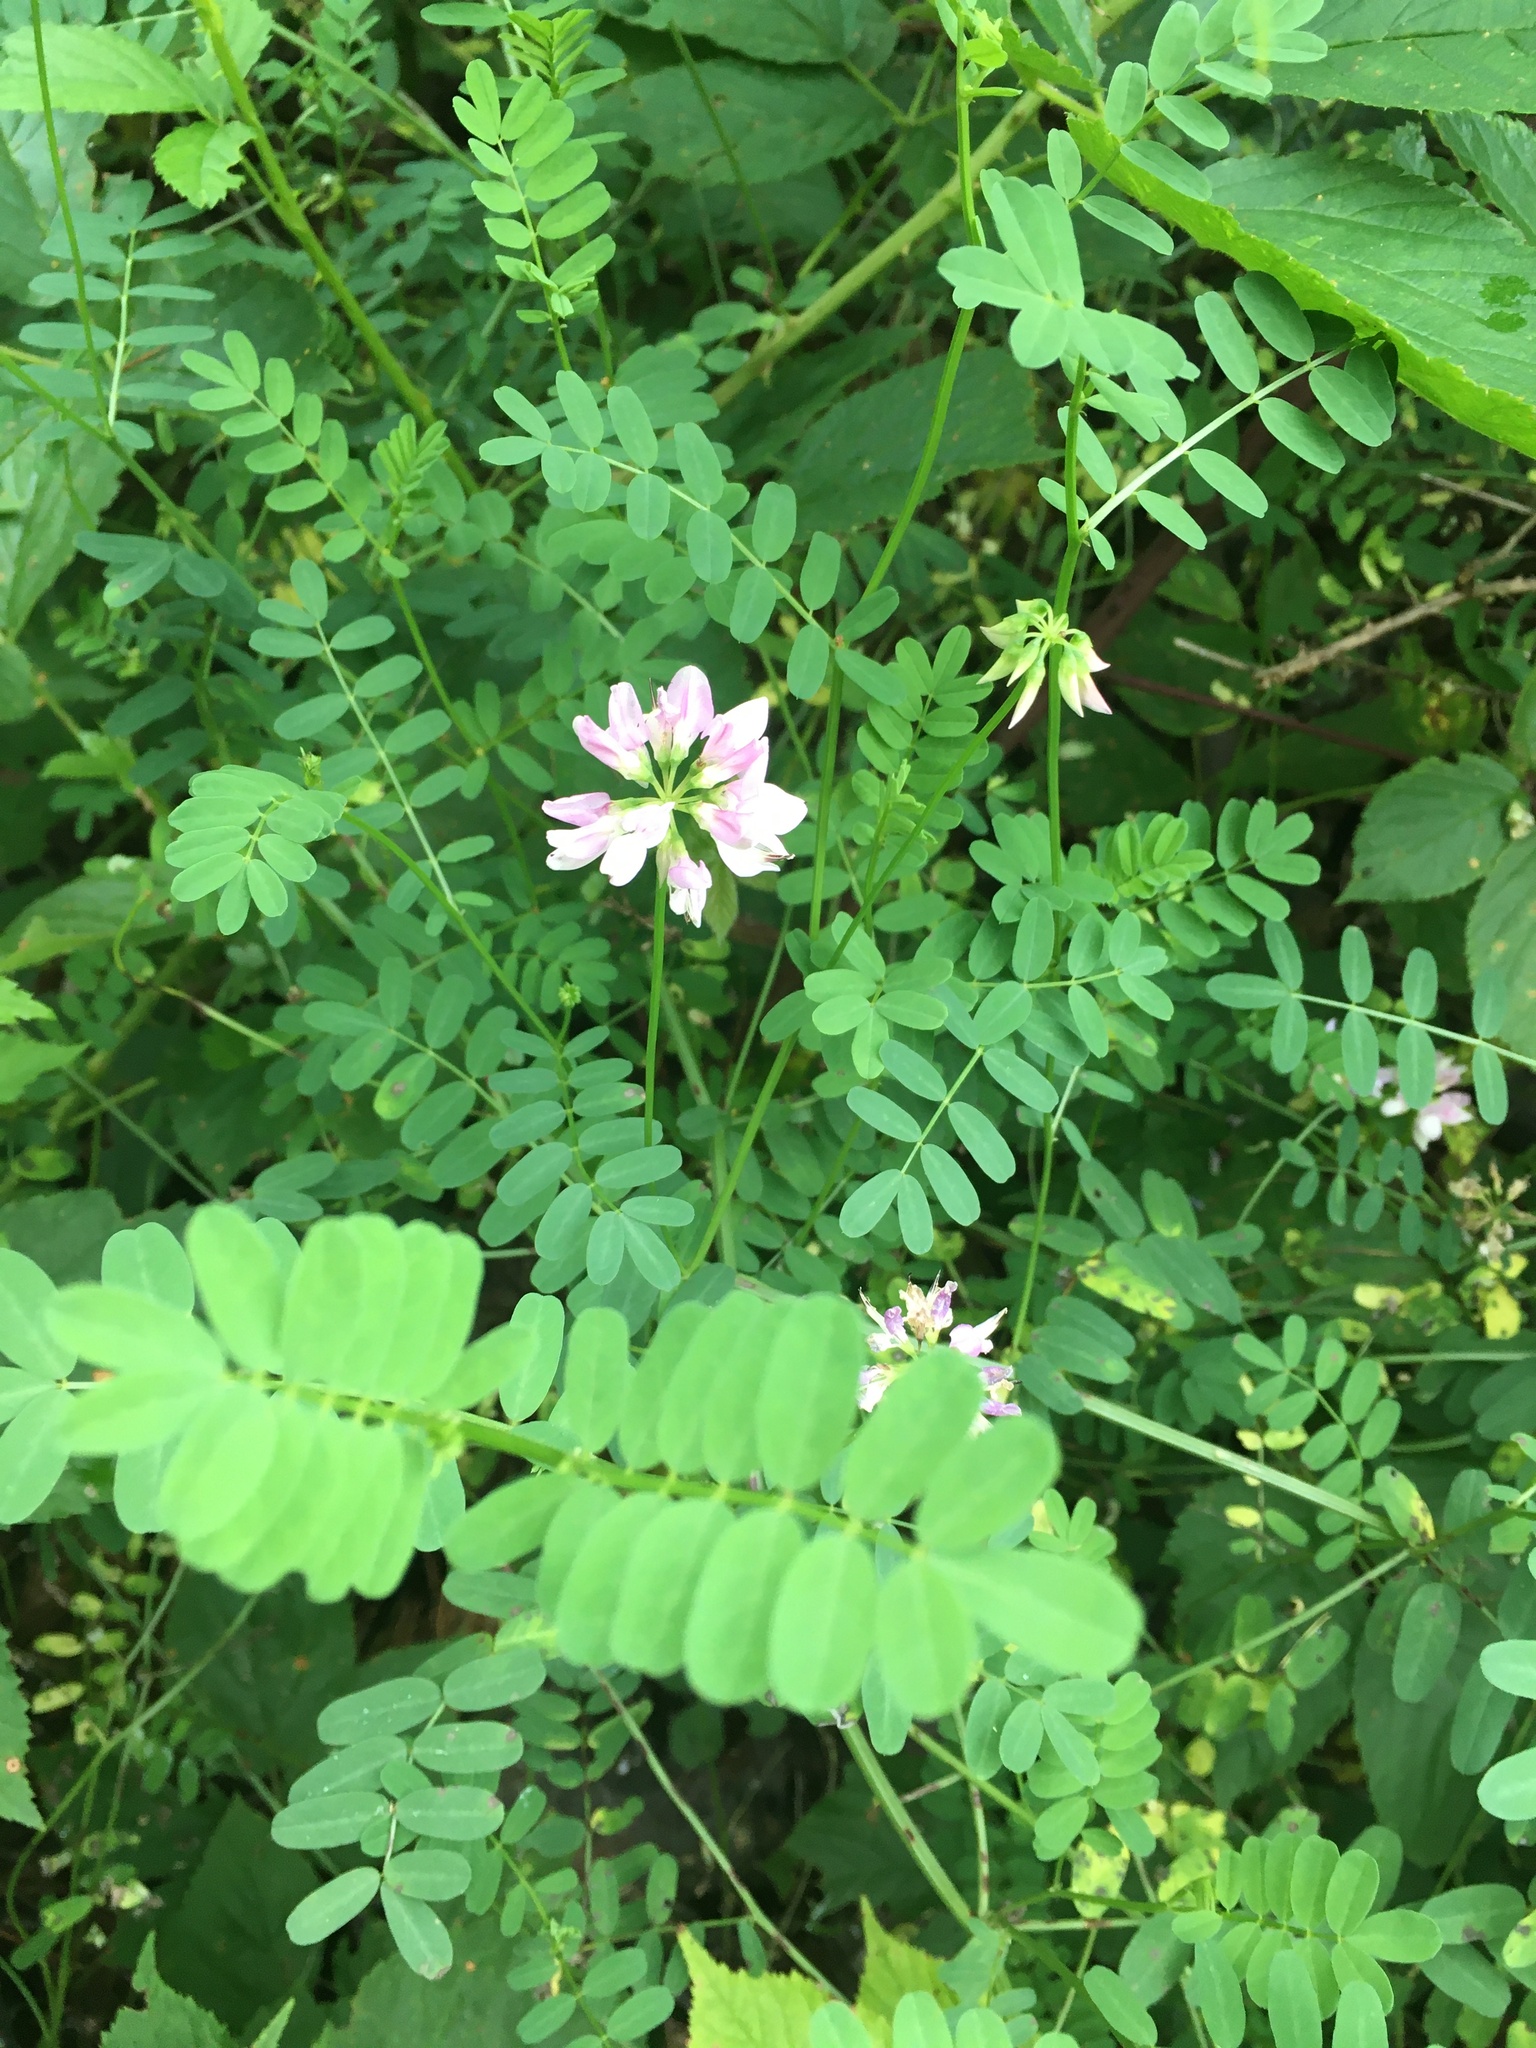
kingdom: Plantae
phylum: Tracheophyta
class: Magnoliopsida
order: Fabales
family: Fabaceae
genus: Coronilla
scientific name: Coronilla varia
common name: Crownvetch
